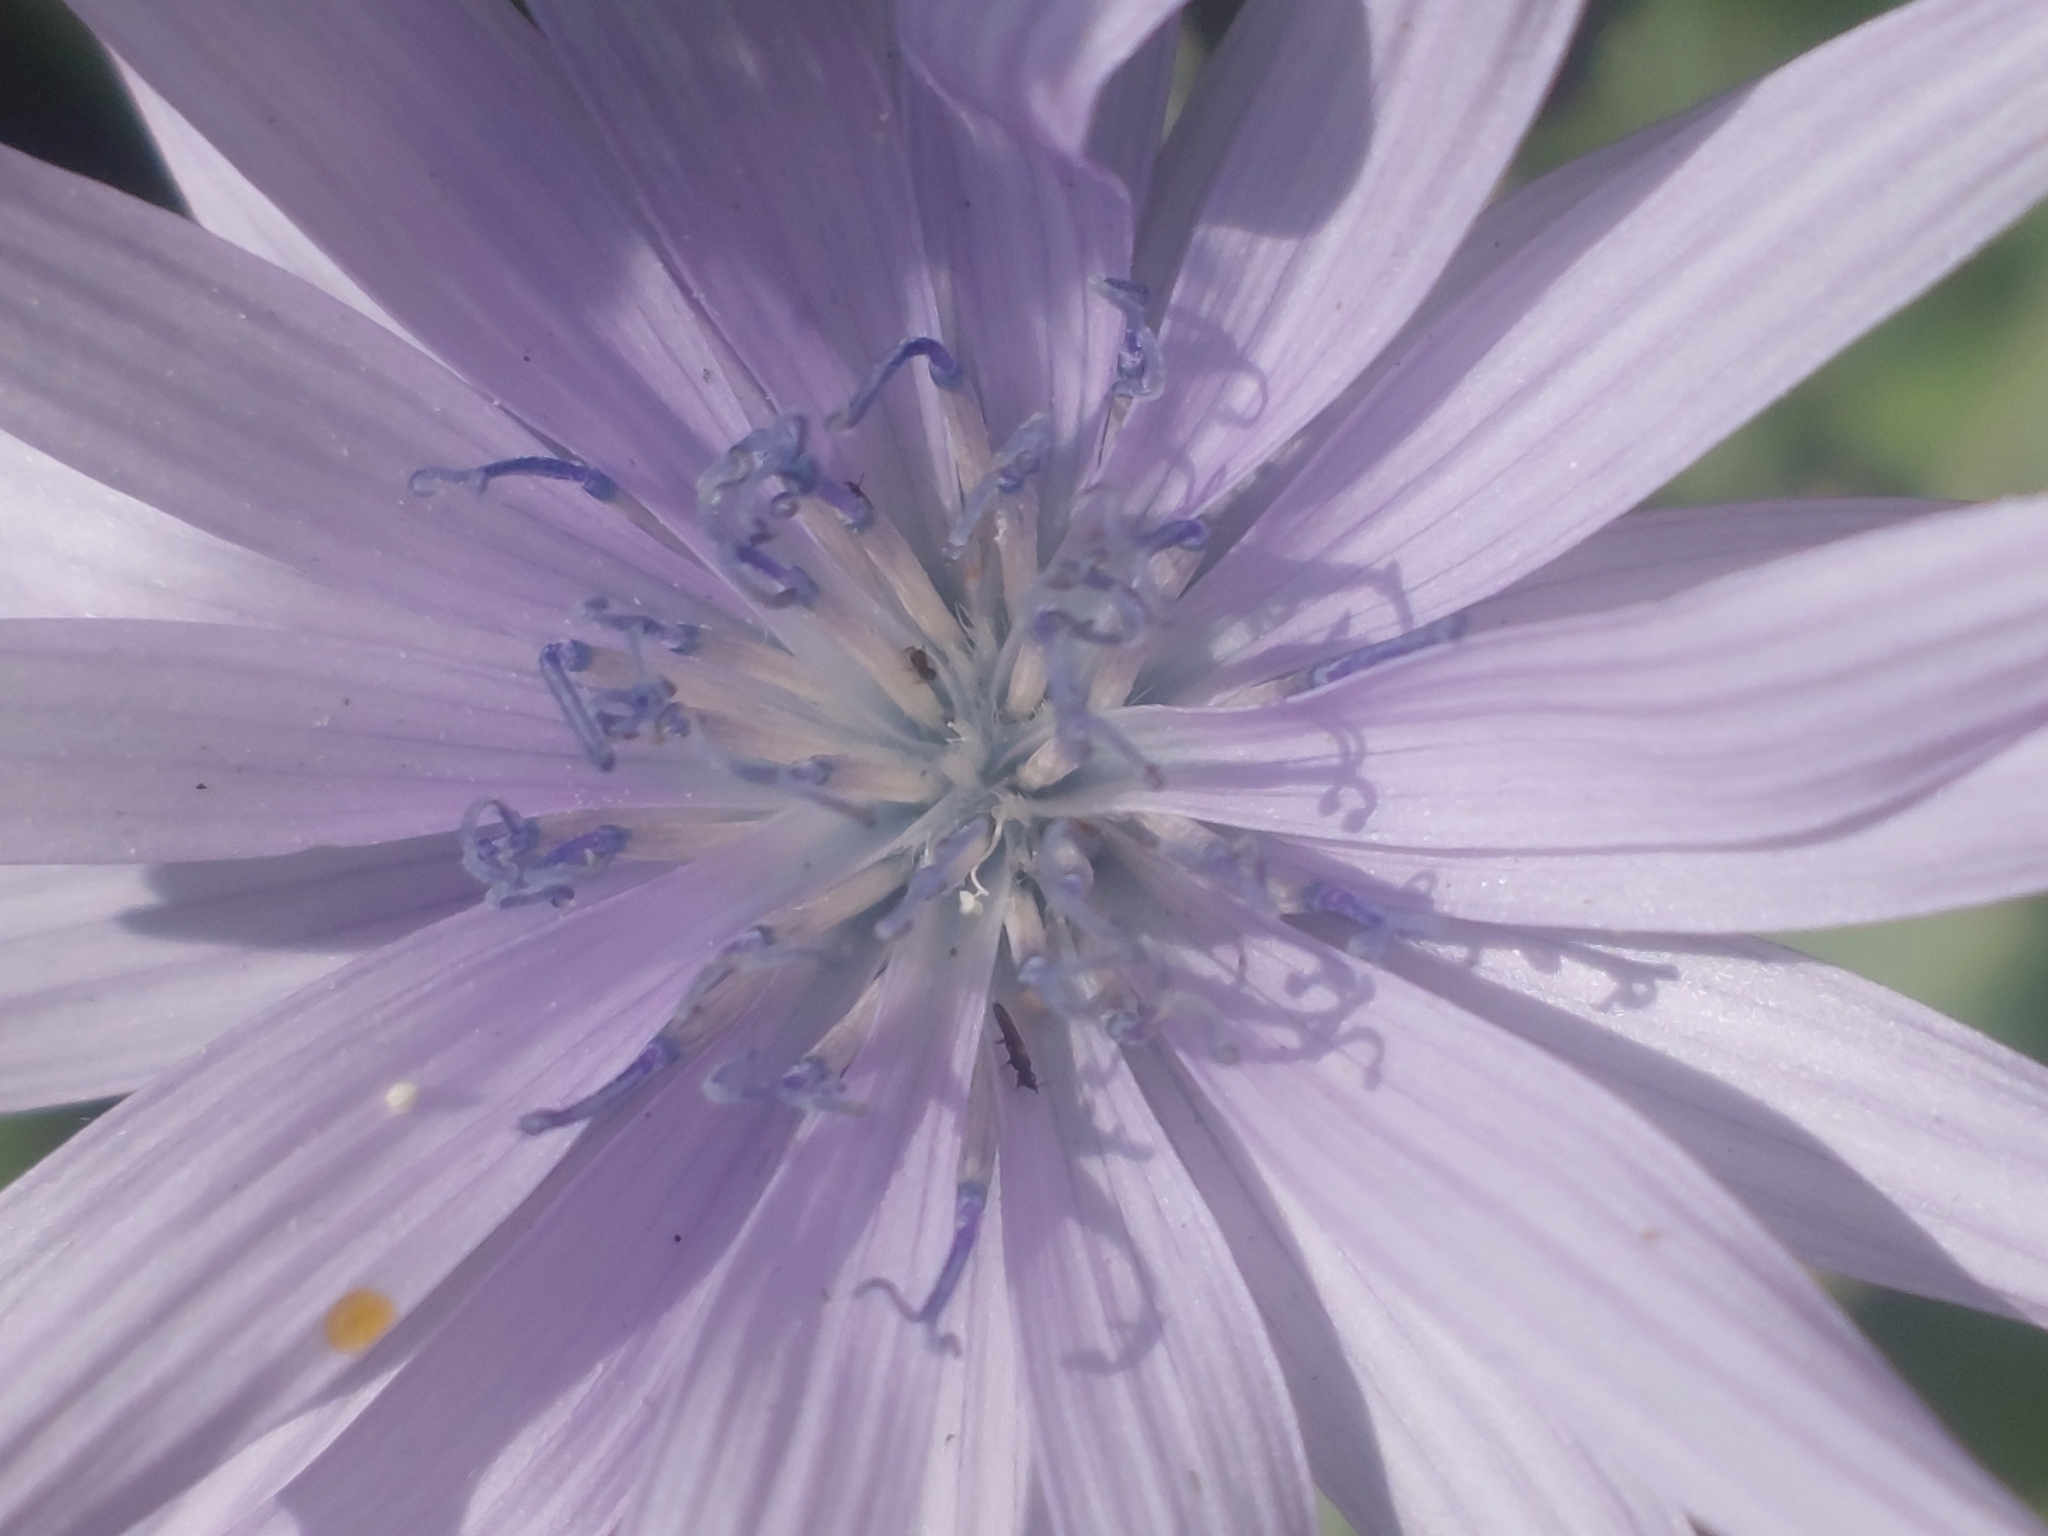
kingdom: Plantae
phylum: Tracheophyta
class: Magnoliopsida
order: Asterales
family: Asteraceae
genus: Lactuca
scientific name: Lactuca macrophylla
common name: Common blue-sow-thistle
